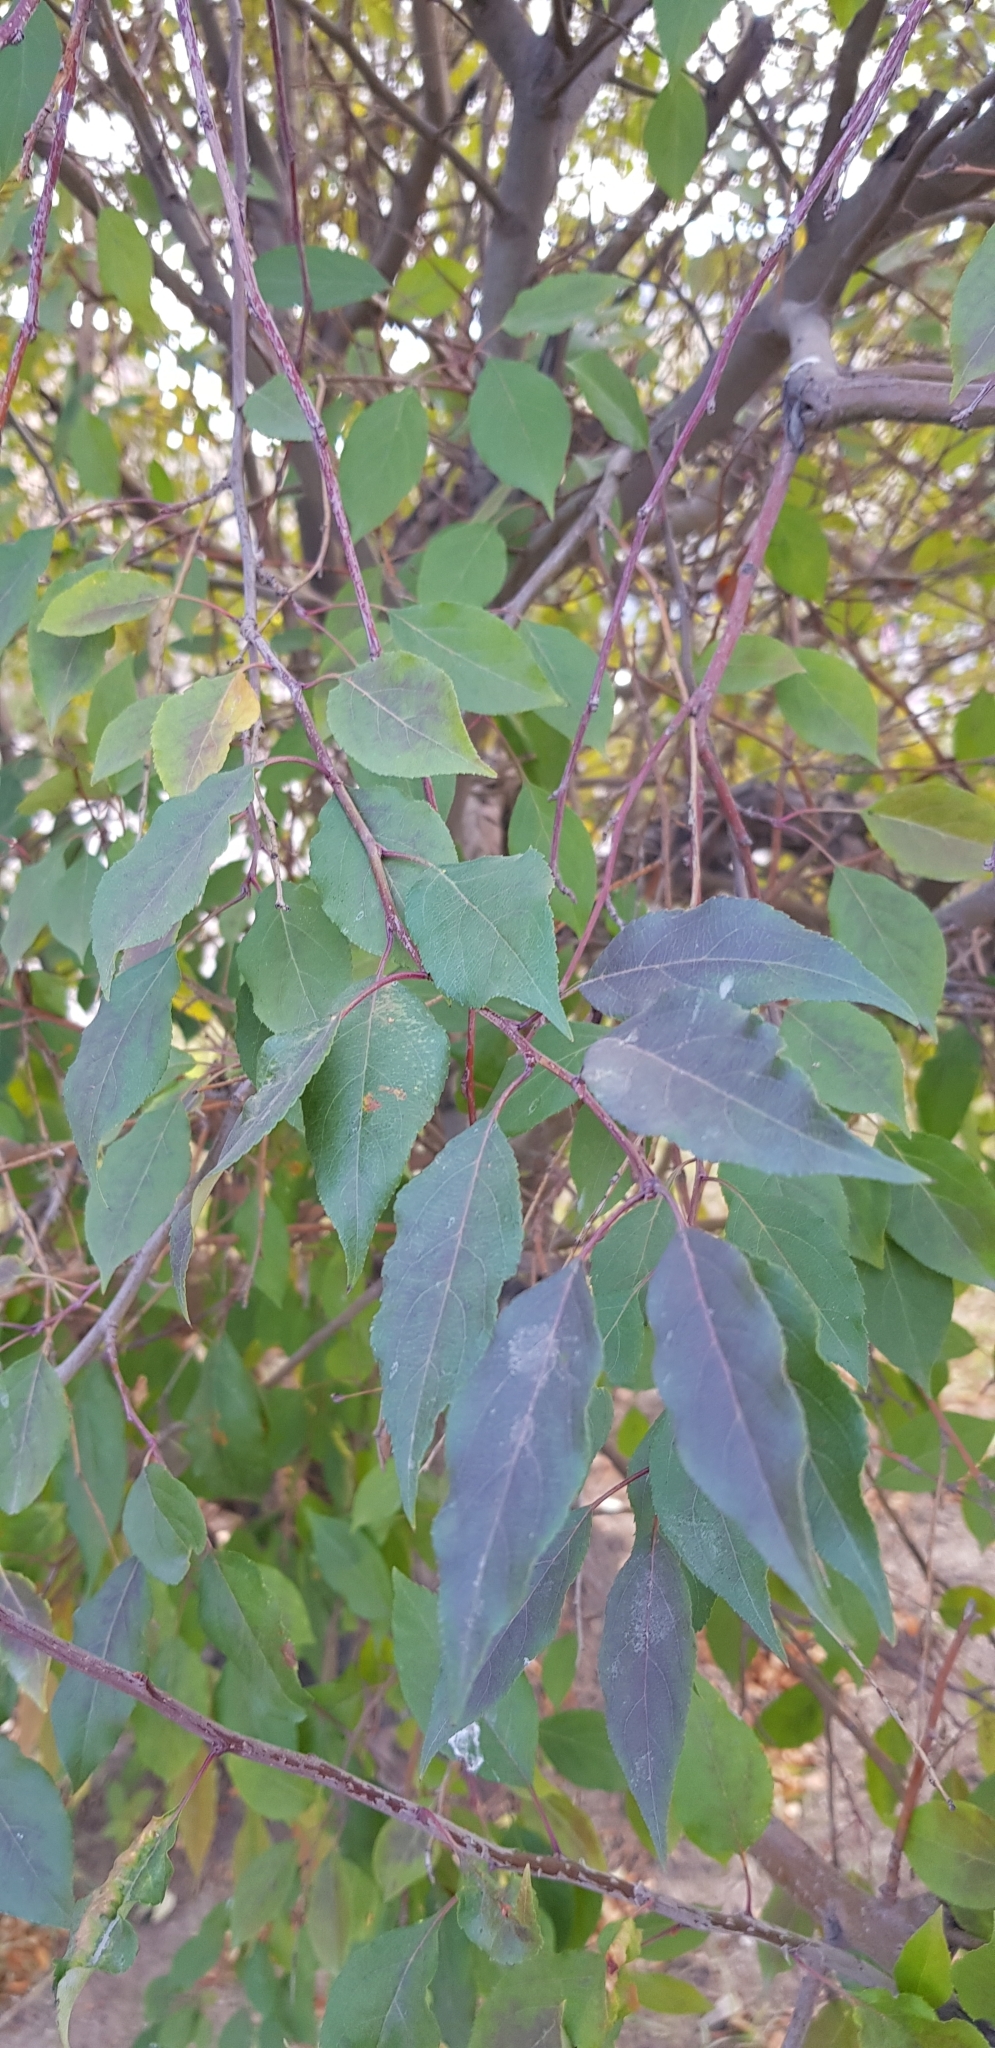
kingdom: Plantae
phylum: Tracheophyta
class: Magnoliopsida
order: Rosales
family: Rosaceae
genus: Malus
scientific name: Malus baccata
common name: Siberian crab
